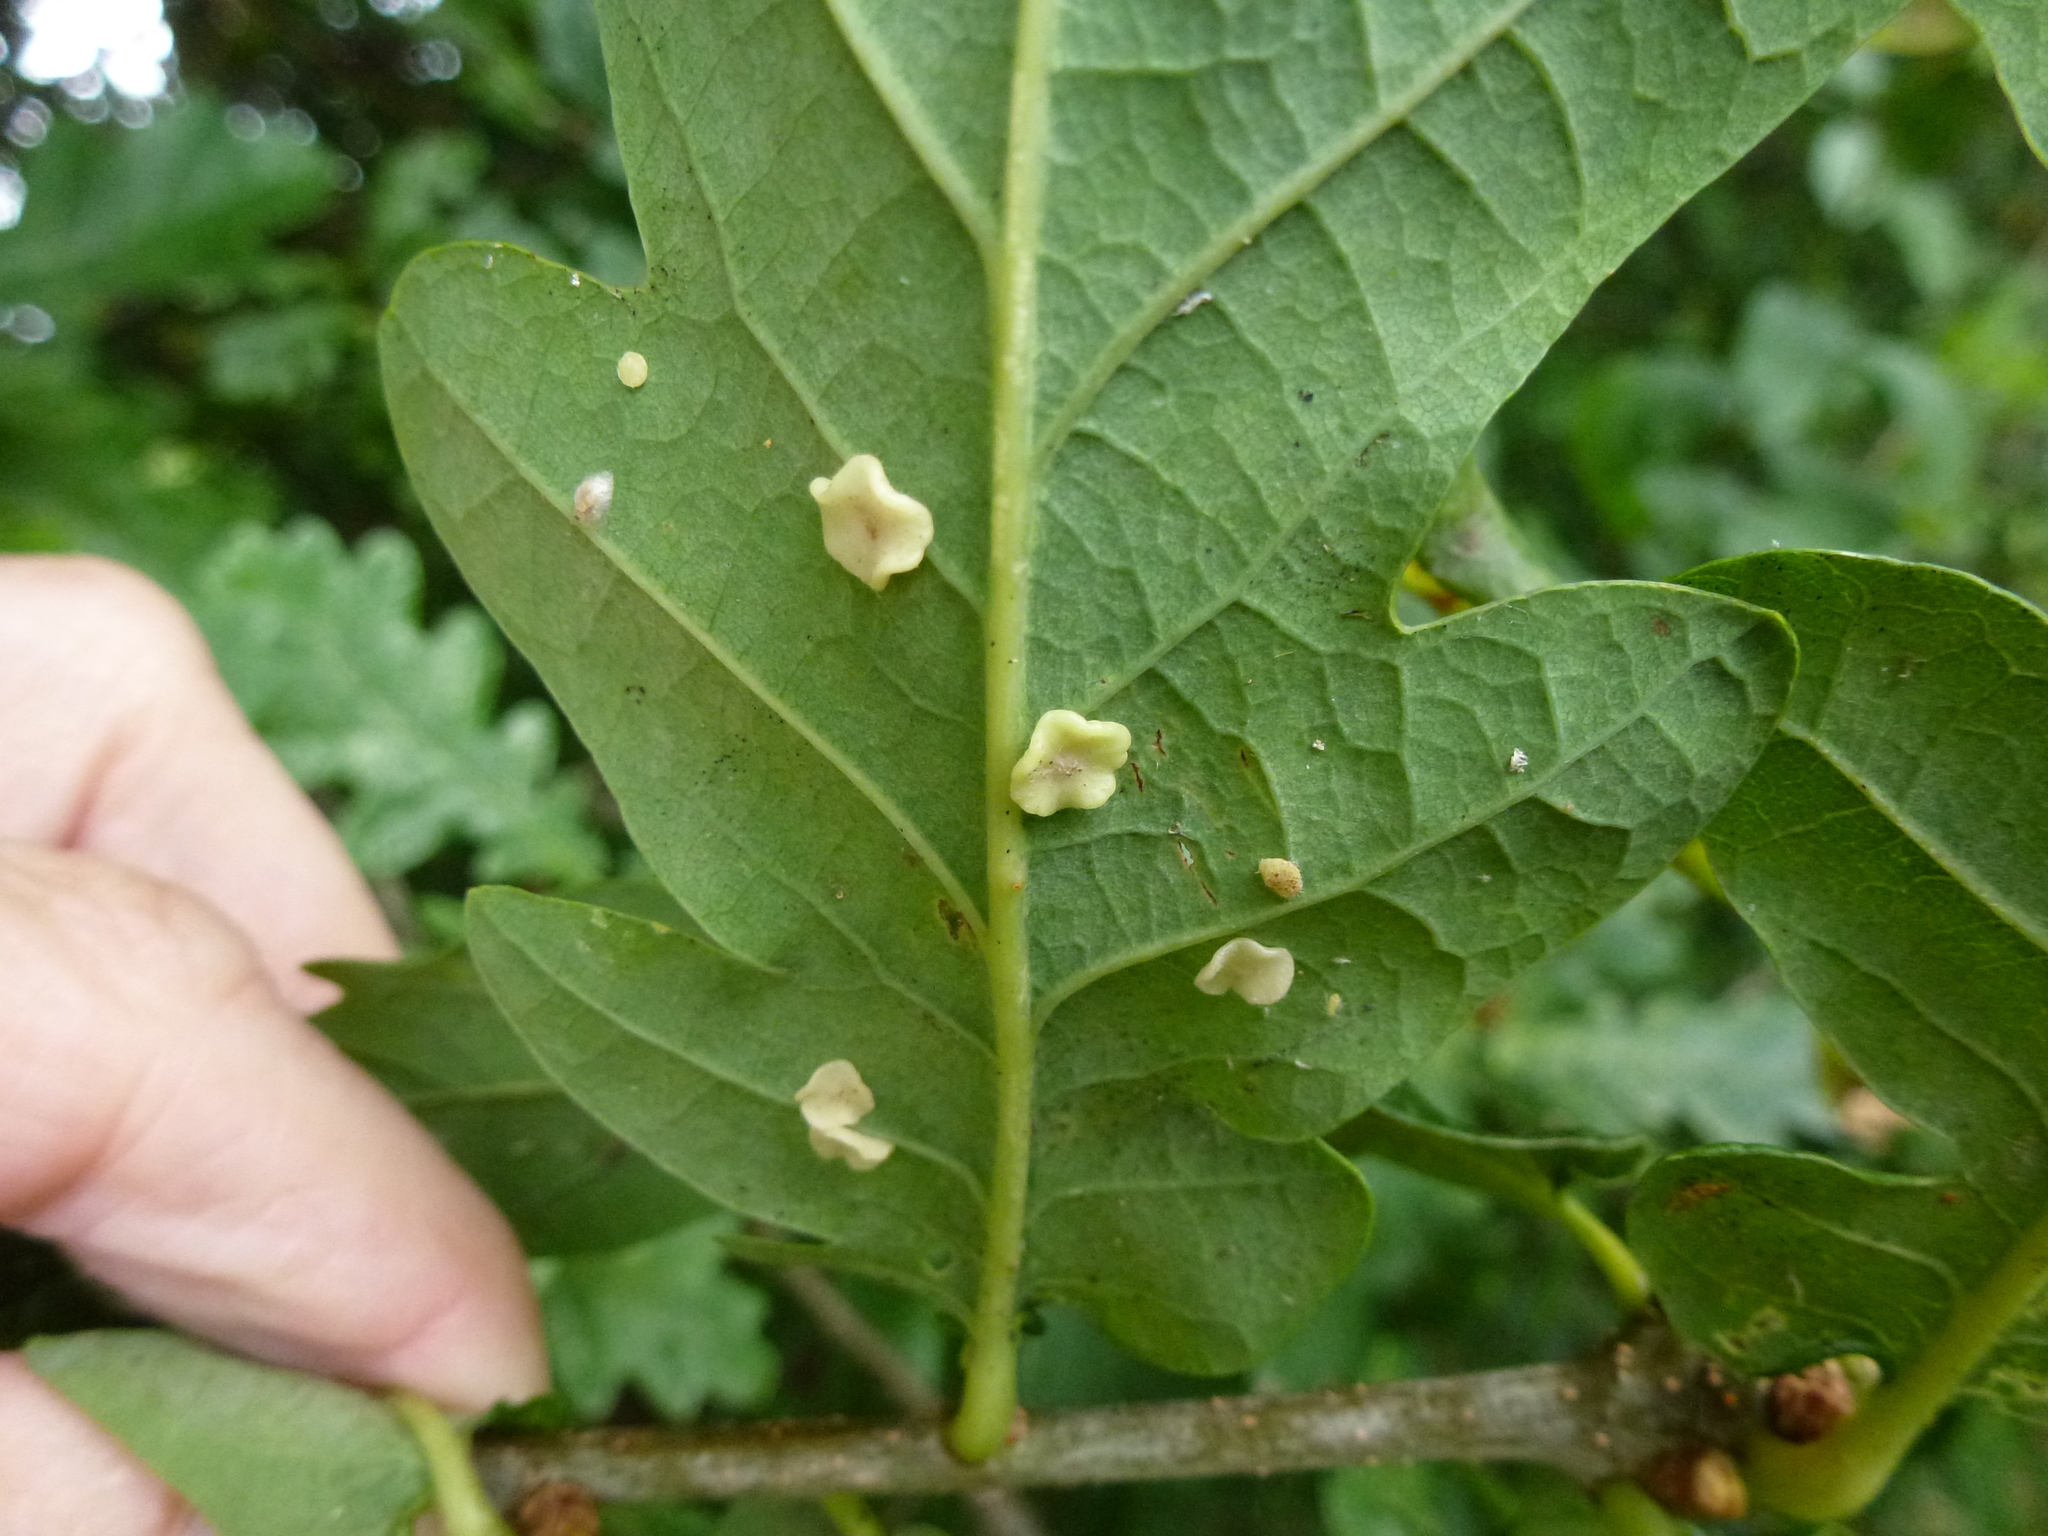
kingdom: Animalia
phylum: Arthropoda
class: Insecta
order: Hymenoptera
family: Cynipidae
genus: Neuroterus
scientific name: Neuroterus albipes
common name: Smooth spangle gall
